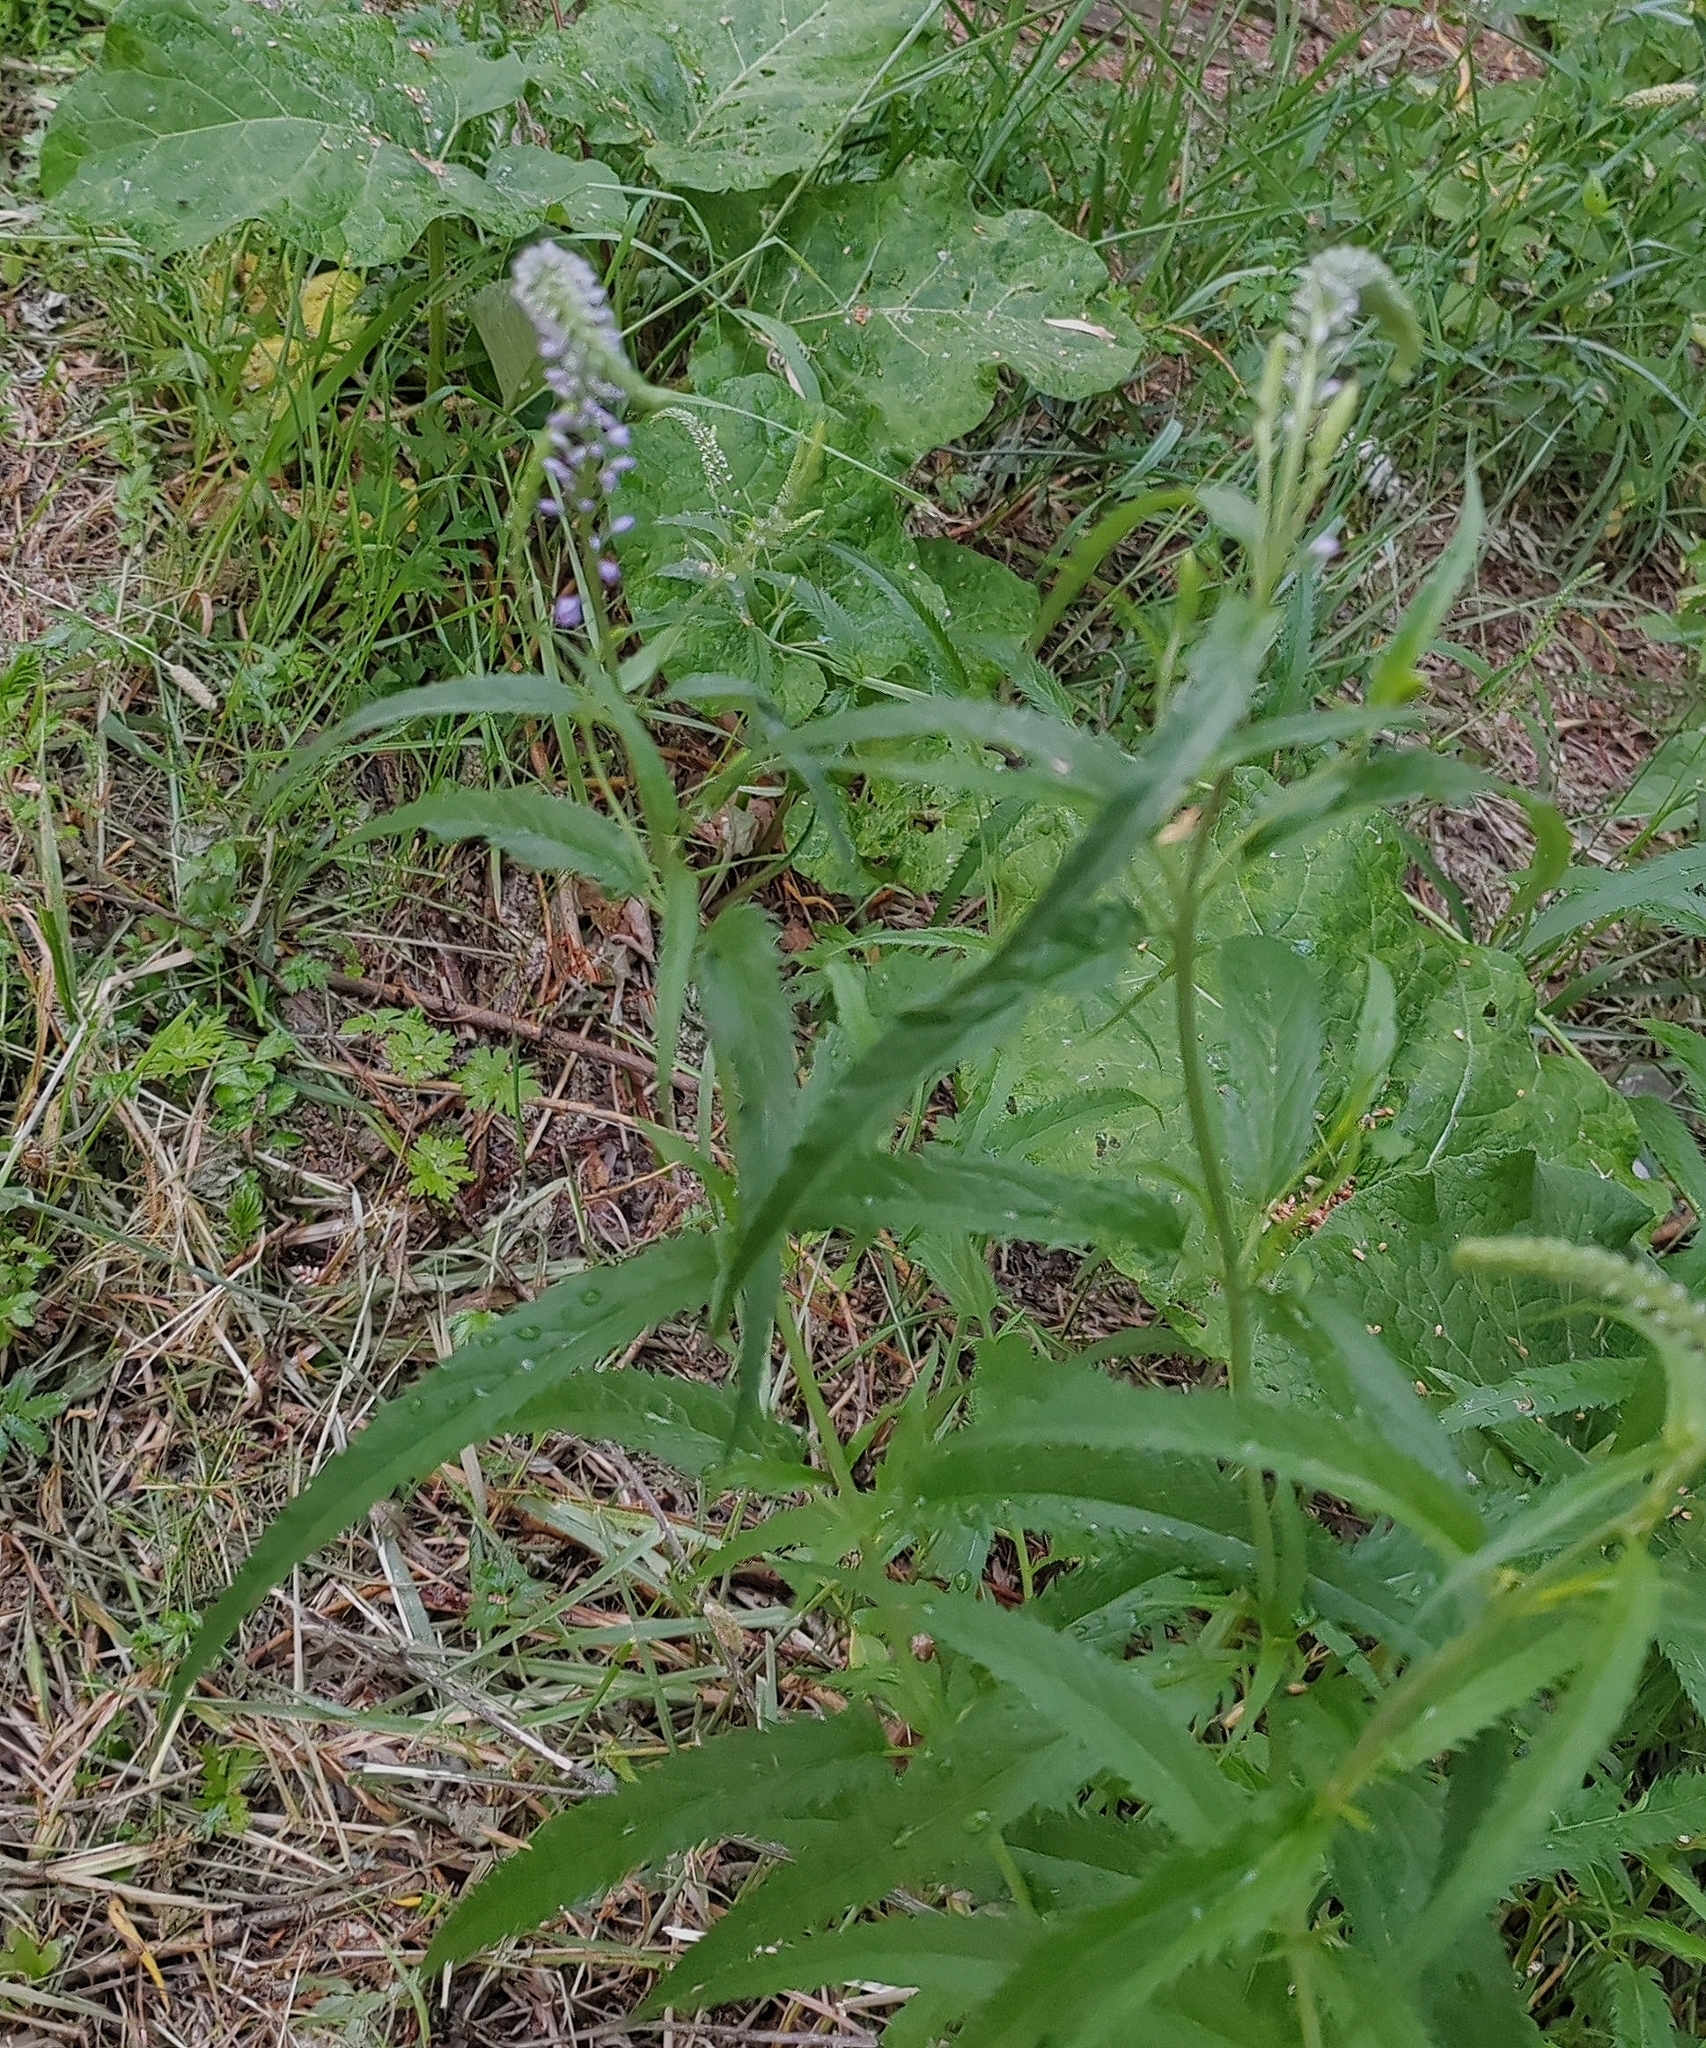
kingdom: Plantae
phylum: Tracheophyta
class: Magnoliopsida
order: Lamiales
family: Plantaginaceae
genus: Veronica
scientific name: Veronica longifolia
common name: Garden speedwell
